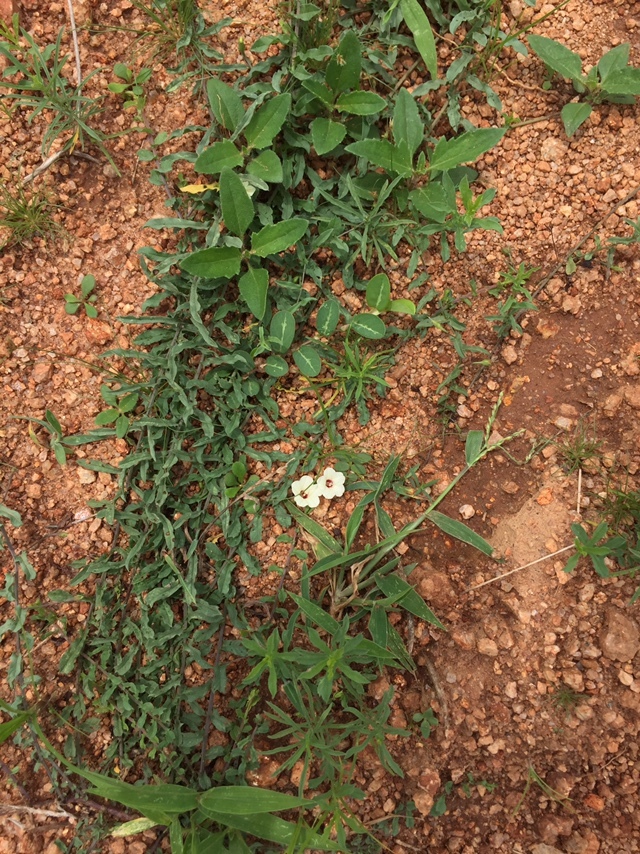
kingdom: Plantae
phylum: Tracheophyta
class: Magnoliopsida
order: Solanales
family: Convolvulaceae
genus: Xenostegia
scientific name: Xenostegia tridentata
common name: African morningvine
